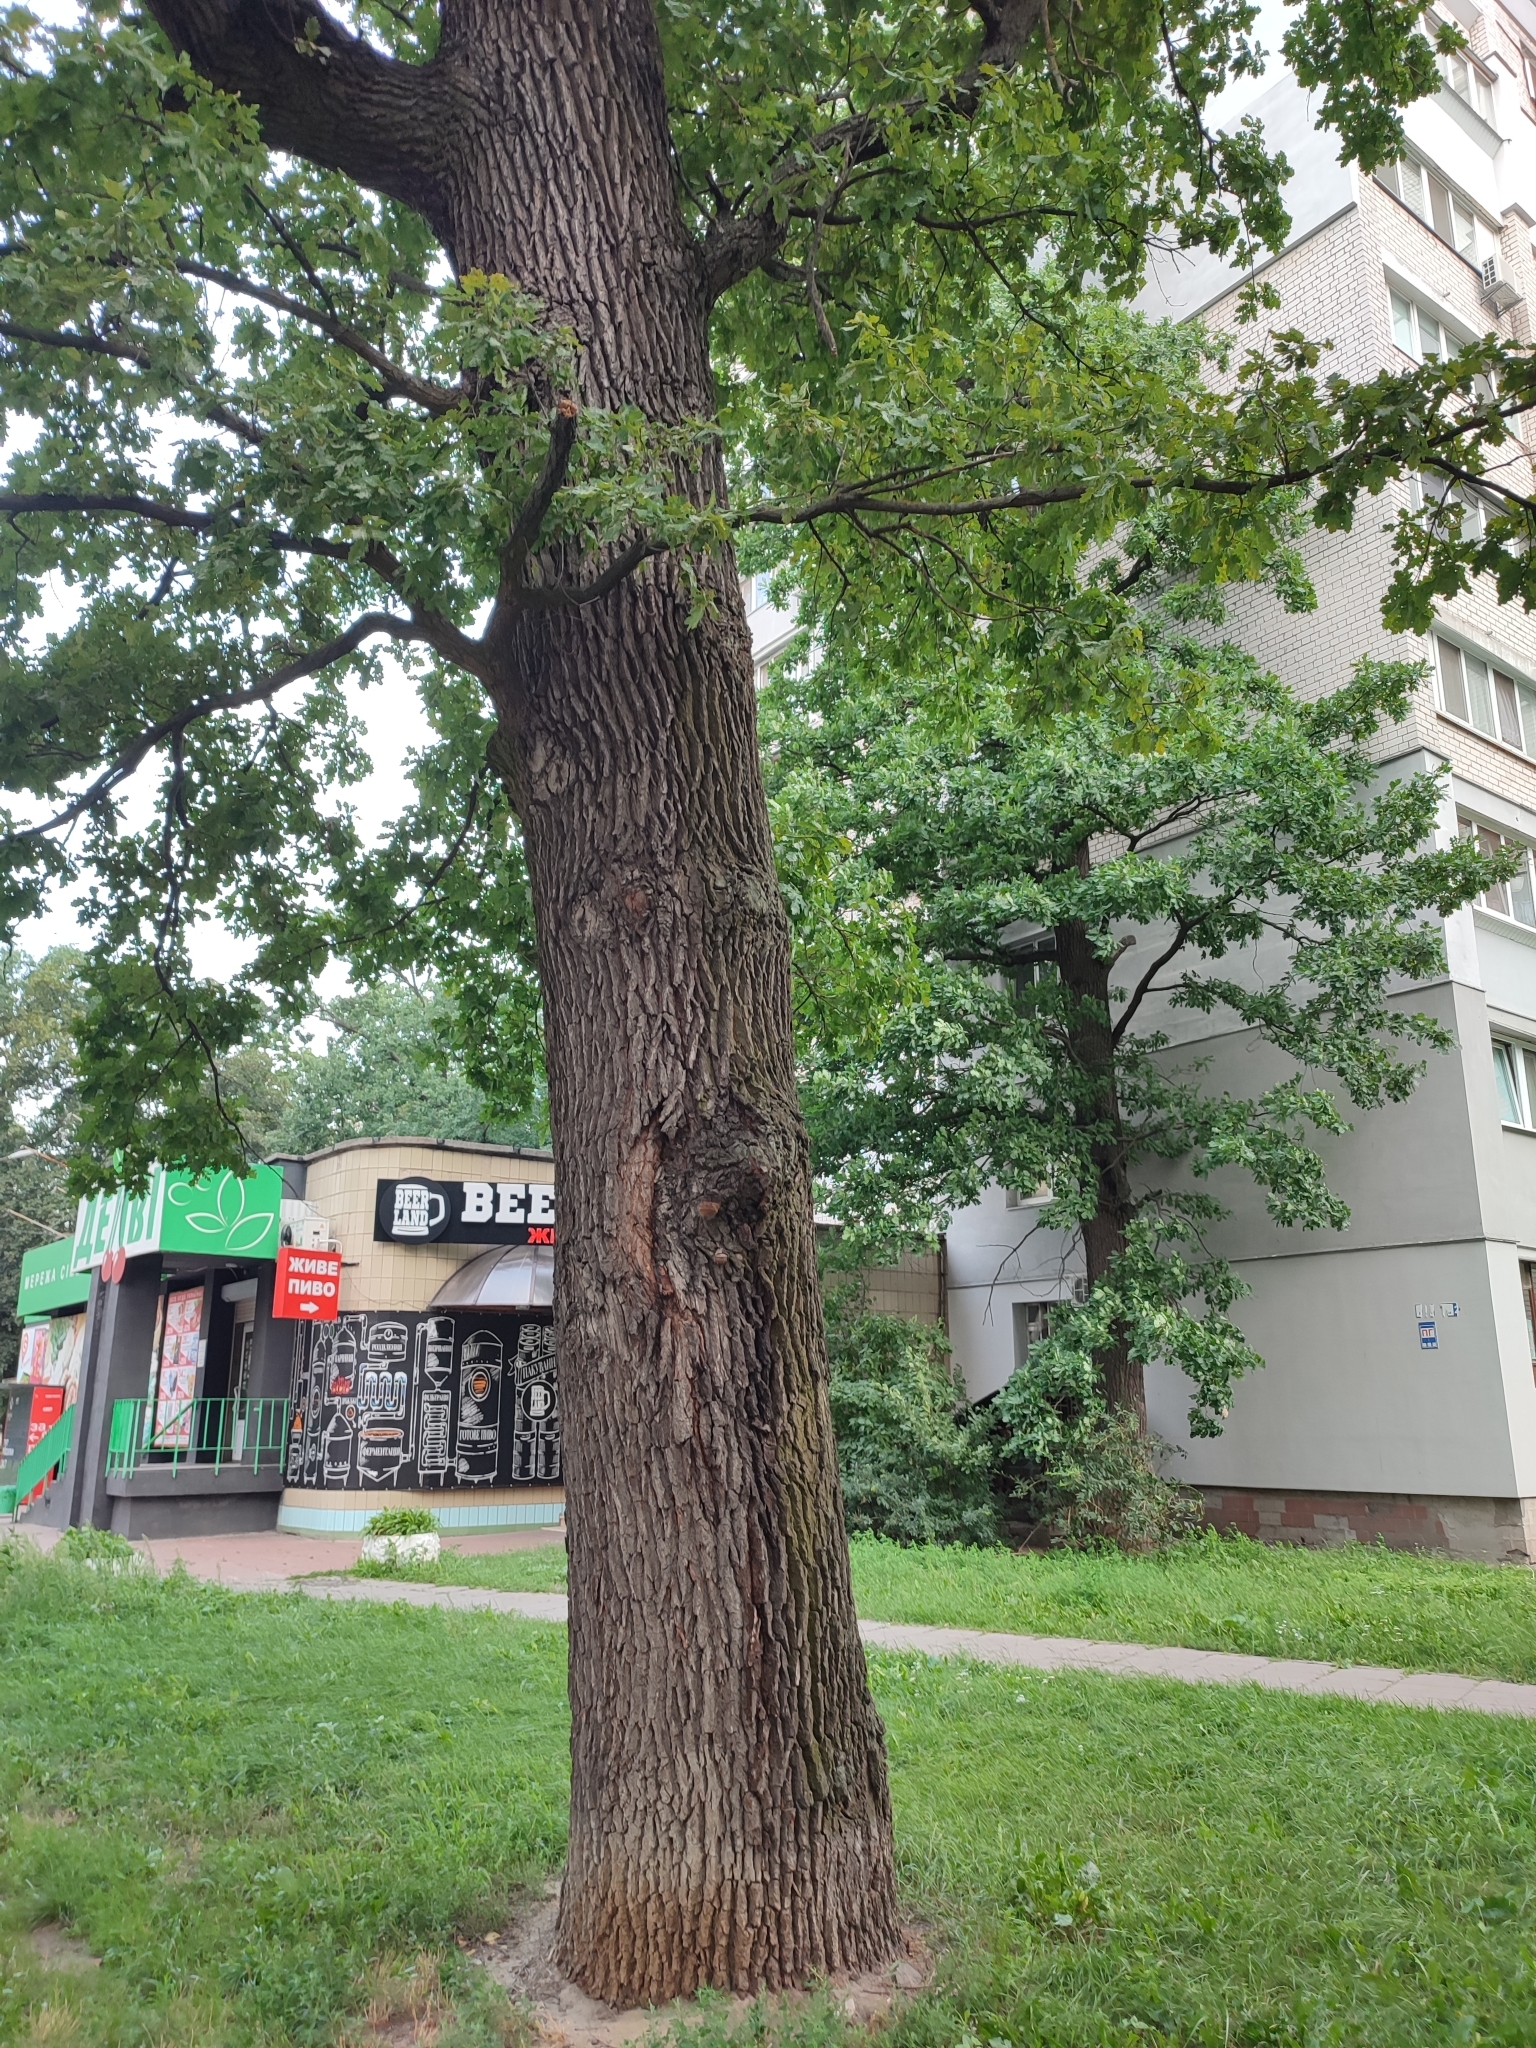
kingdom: Plantae
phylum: Tracheophyta
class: Magnoliopsida
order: Fagales
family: Fagaceae
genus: Quercus
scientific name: Quercus robur
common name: Pedunculate oak
